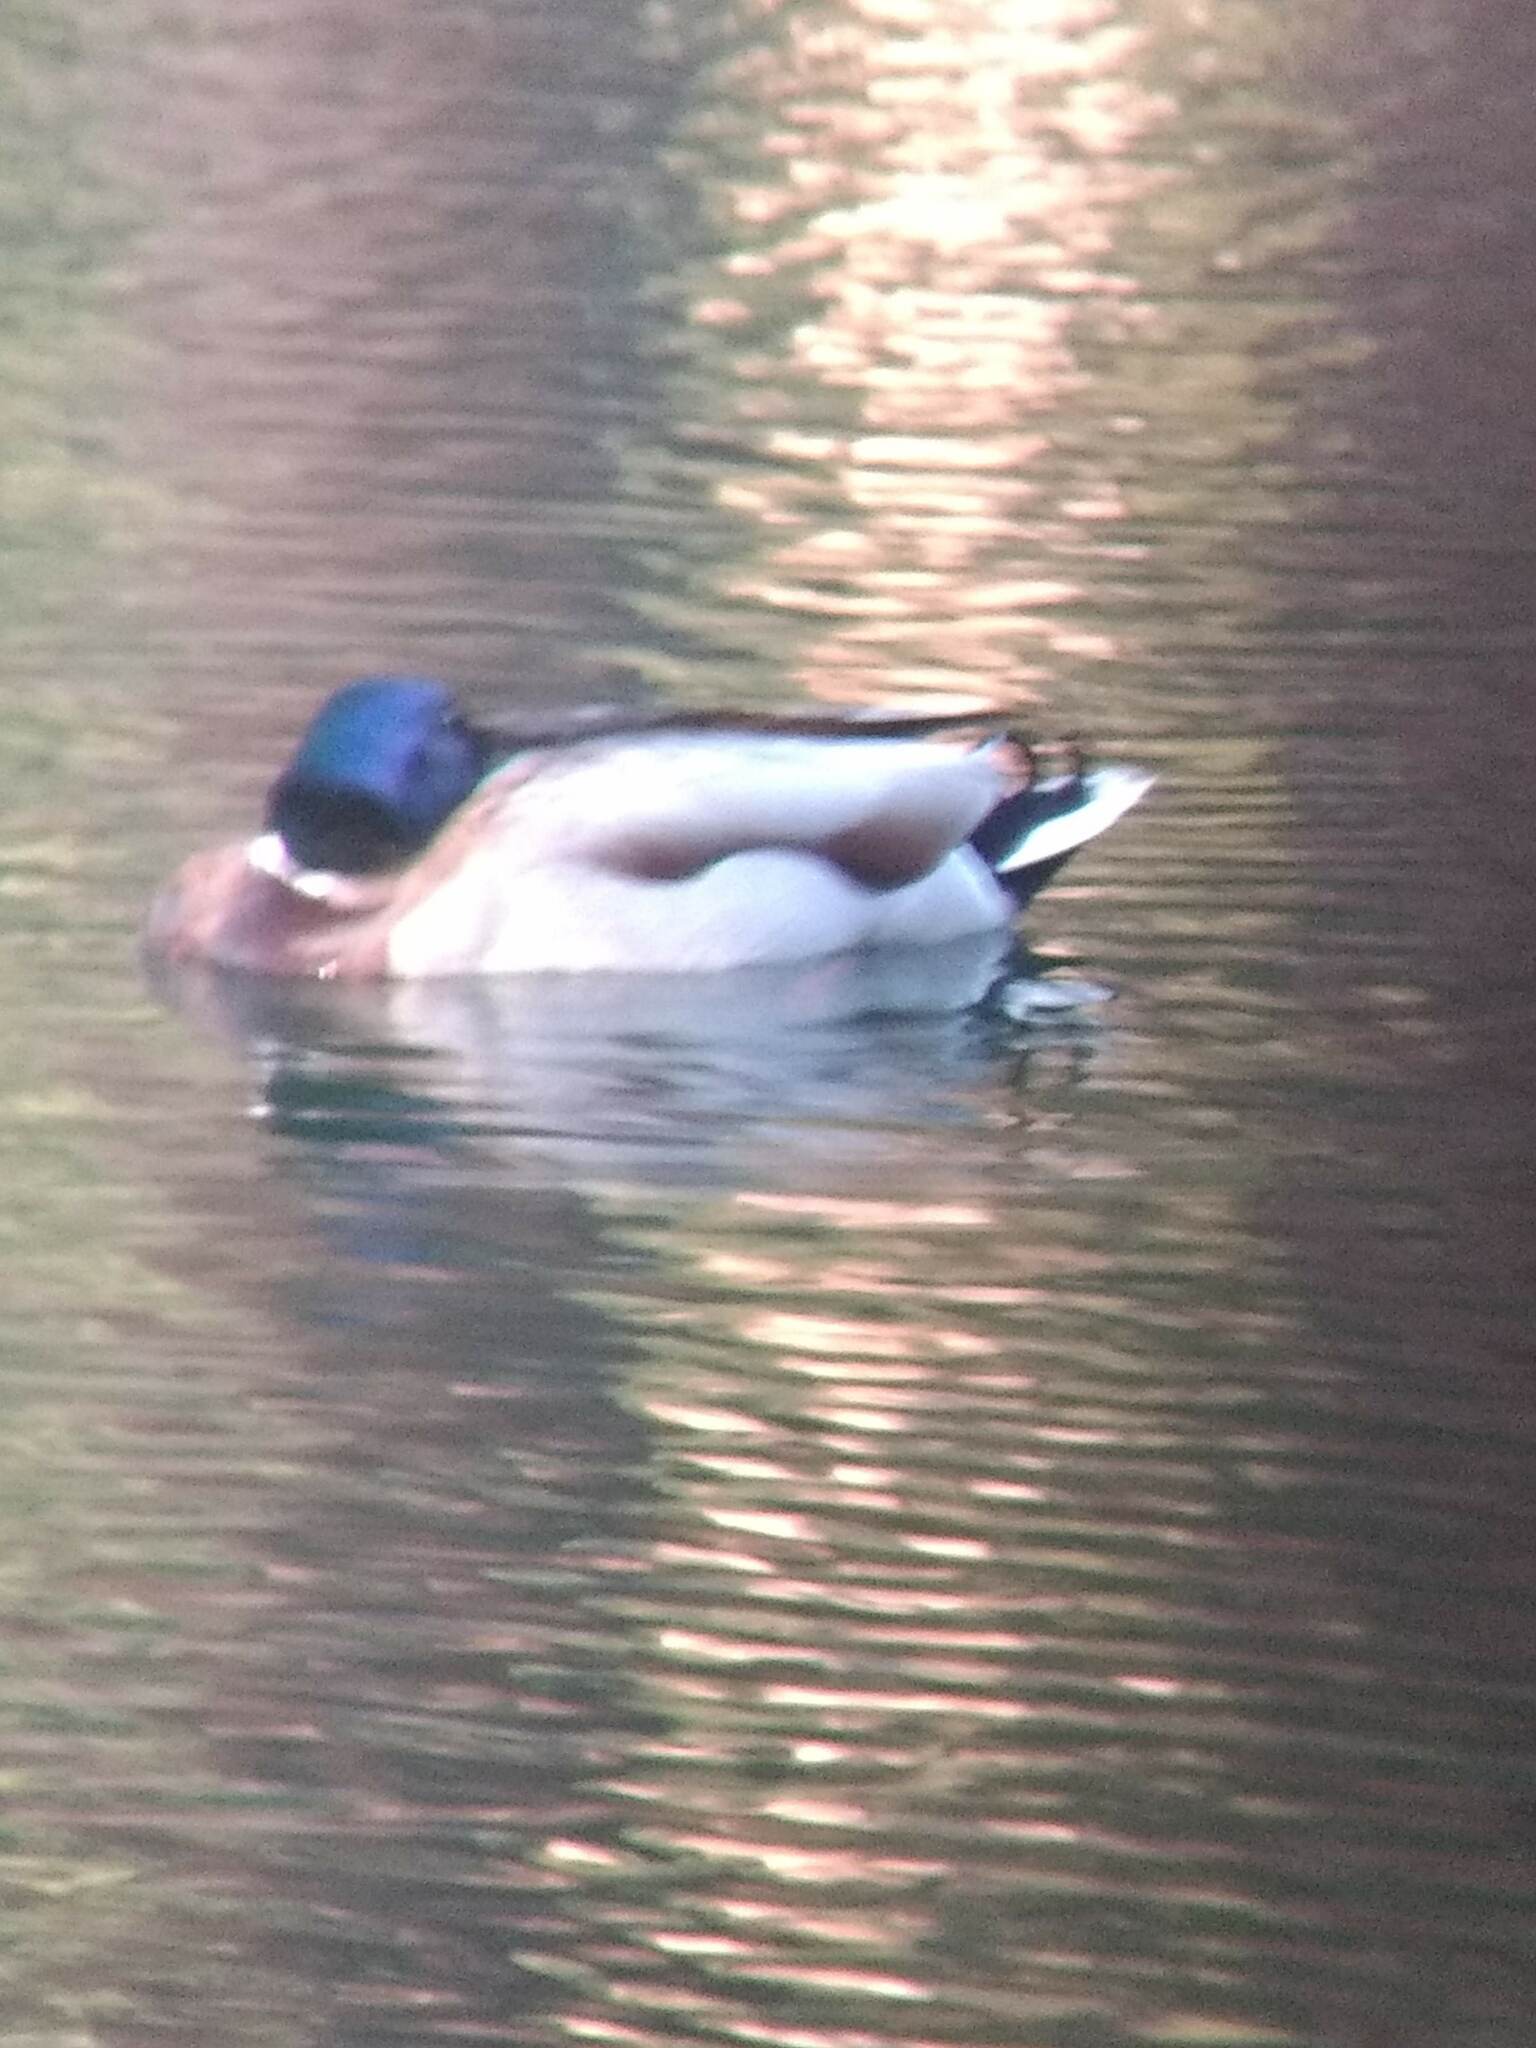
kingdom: Animalia
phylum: Chordata
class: Aves
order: Anseriformes
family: Anatidae
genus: Anas
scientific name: Anas platyrhynchos
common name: Mallard
